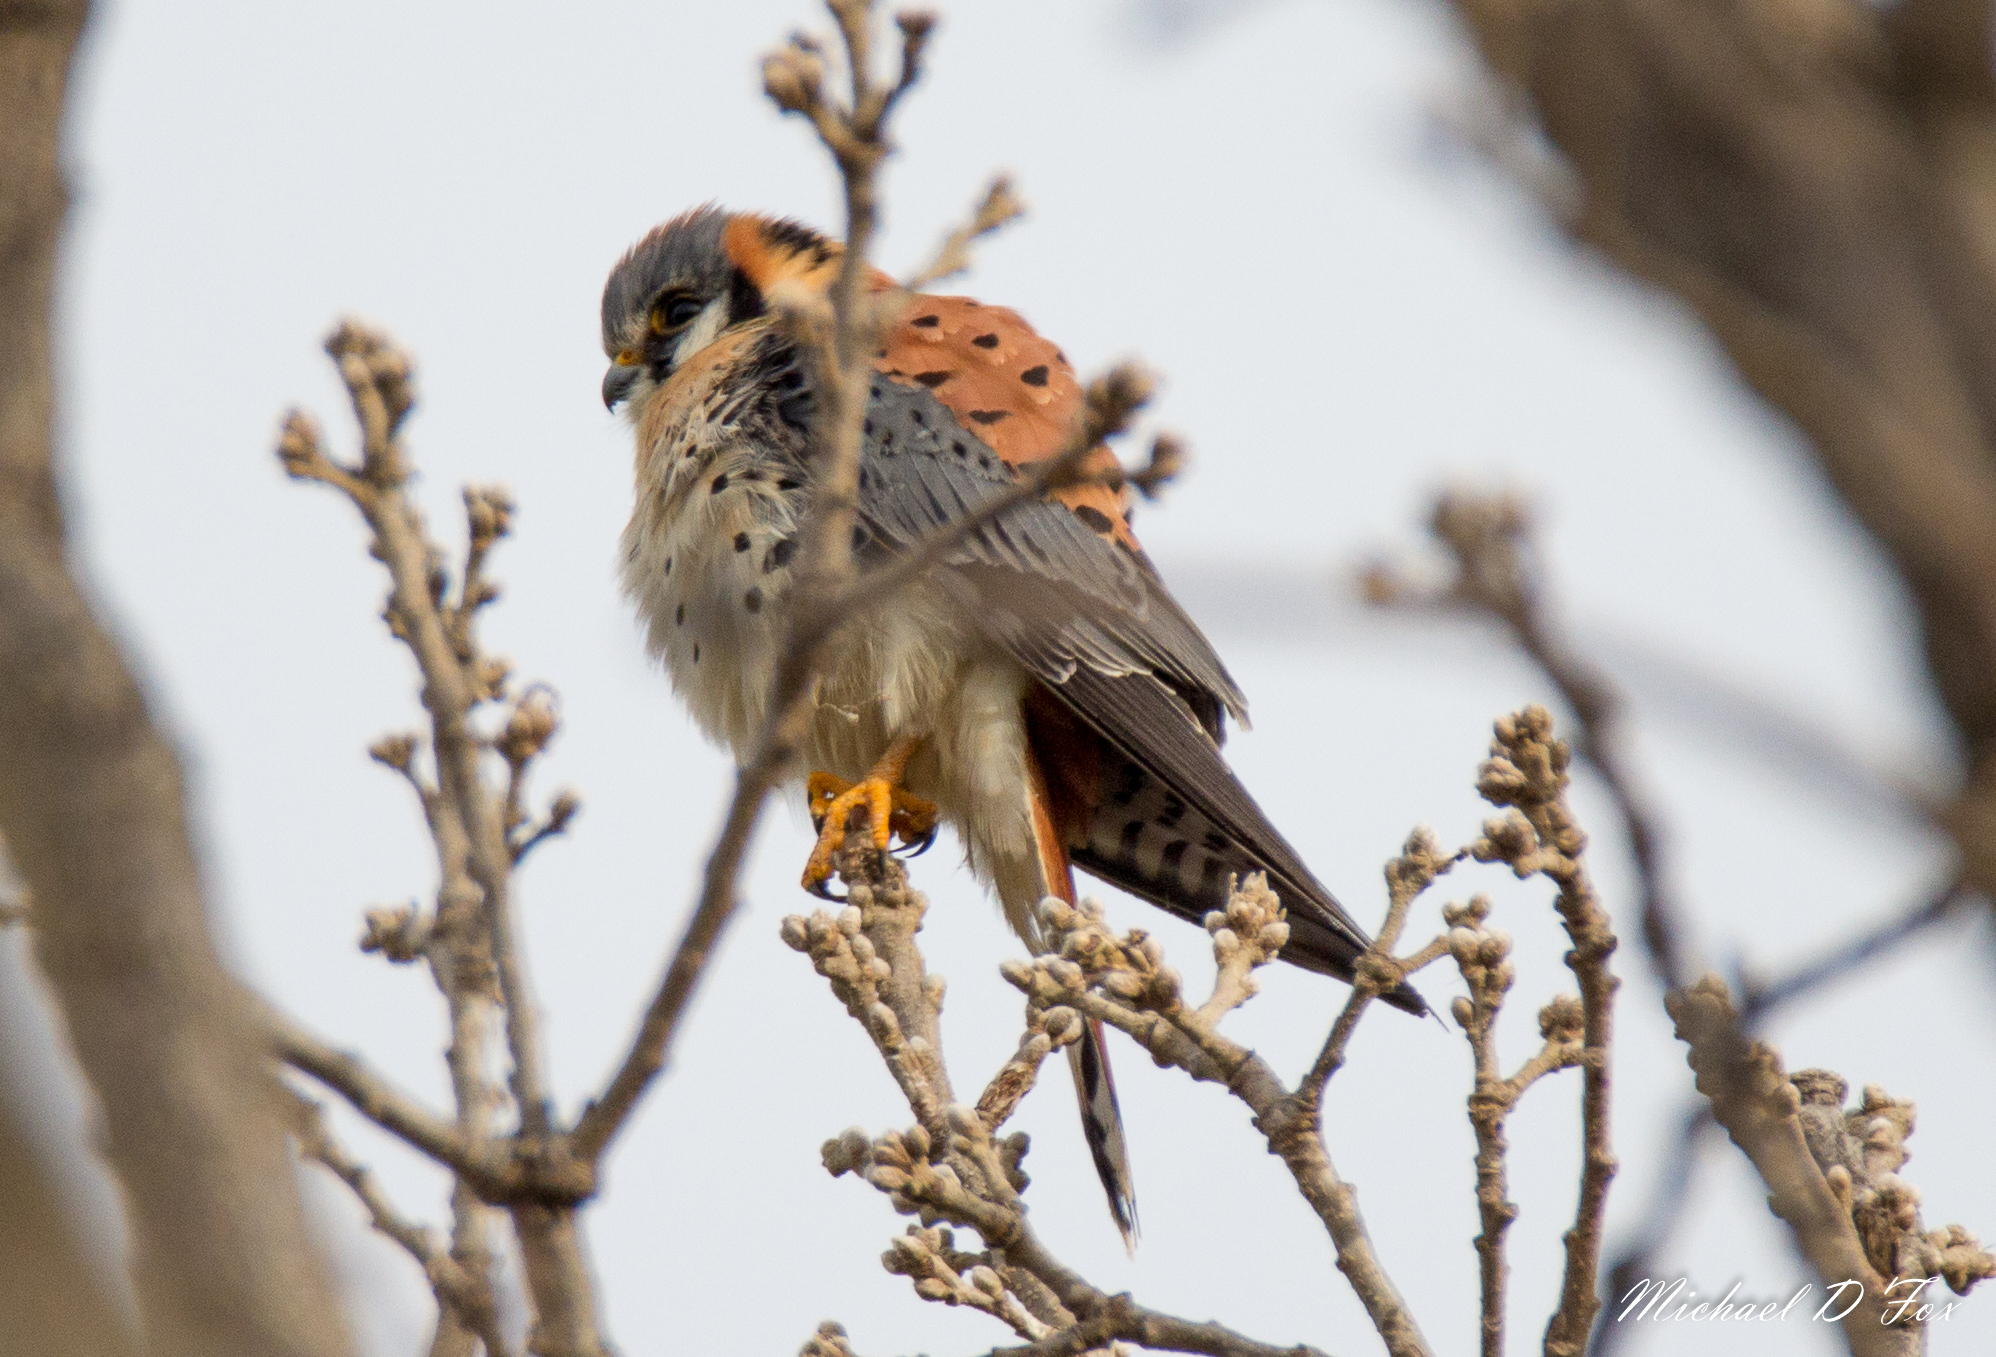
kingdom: Animalia
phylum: Chordata
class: Aves
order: Falconiformes
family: Falconidae
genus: Falco
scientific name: Falco sparverius
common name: American kestrel
